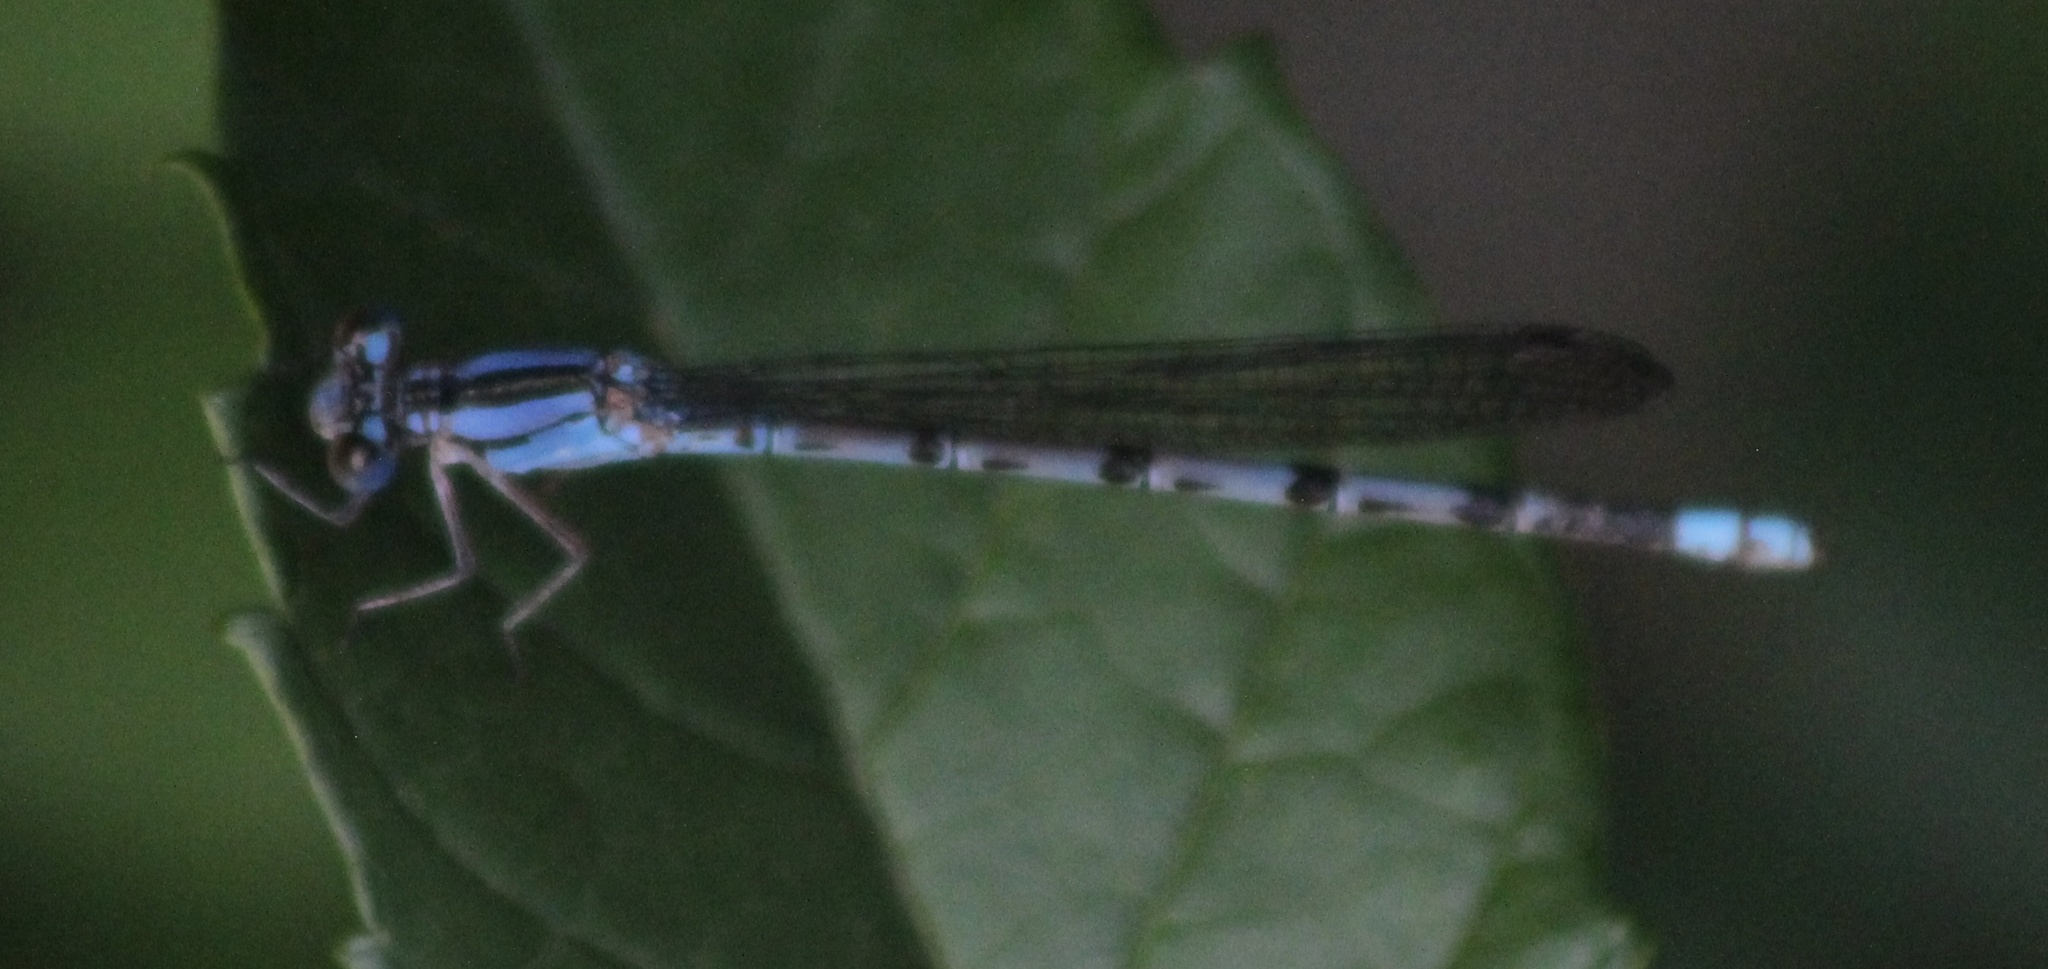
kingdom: Animalia
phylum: Arthropoda
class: Insecta
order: Odonata
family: Coenagrionidae
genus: Argia
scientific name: Argia funebris
